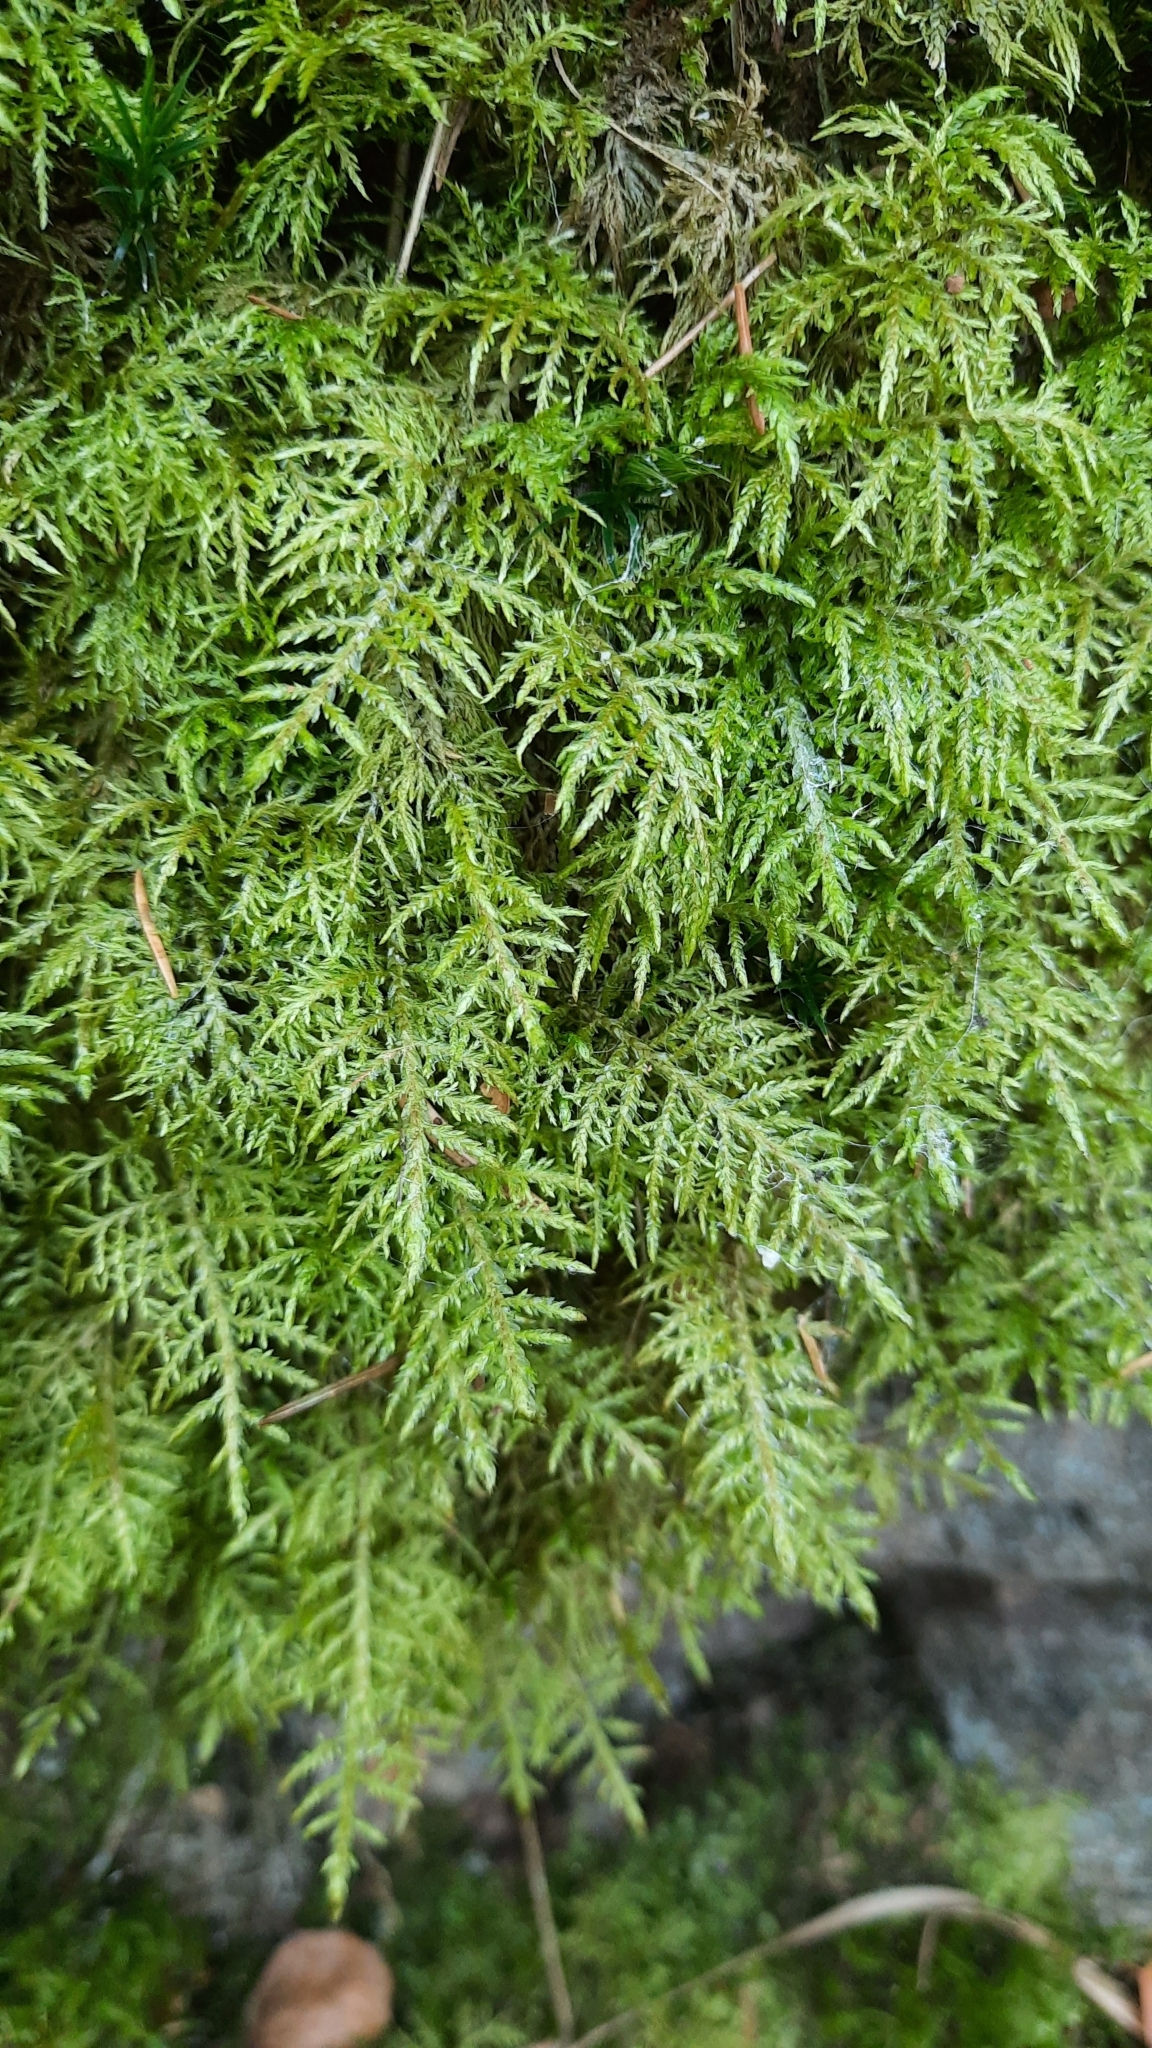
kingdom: Plantae
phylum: Bryophyta
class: Bryopsida
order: Hypnales
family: Hylocomiaceae
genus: Hylocomium
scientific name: Hylocomium splendens
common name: Stairstep moss
